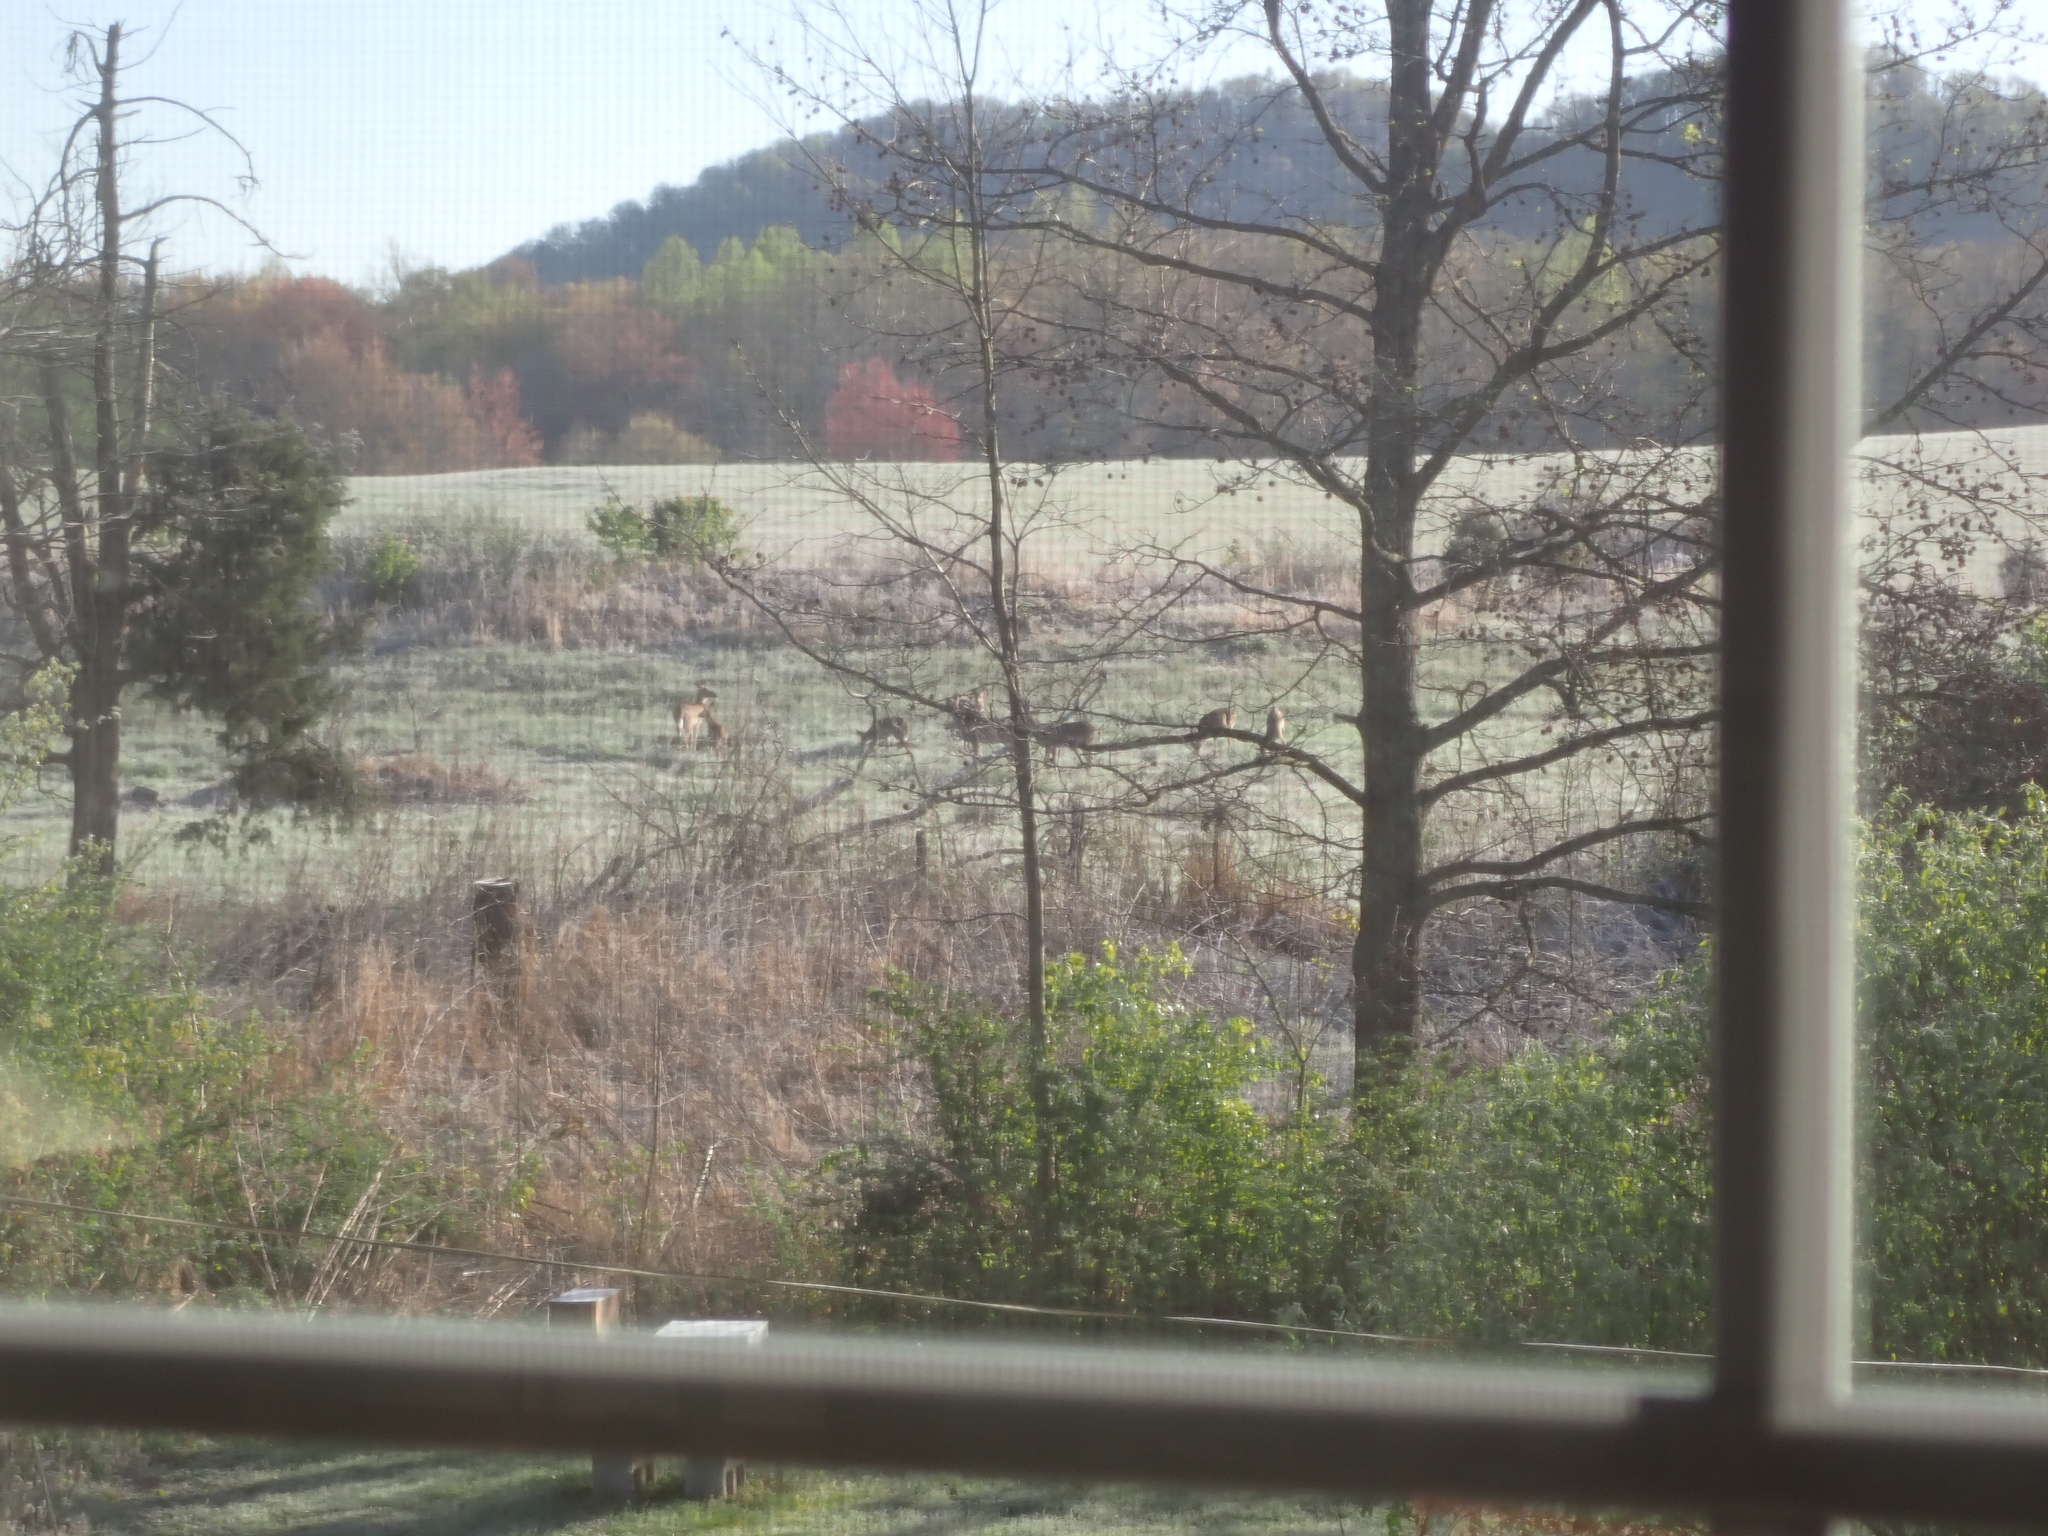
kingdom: Animalia
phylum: Chordata
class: Mammalia
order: Artiodactyla
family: Cervidae
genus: Odocoileus
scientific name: Odocoileus virginianus
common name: White-tailed deer
